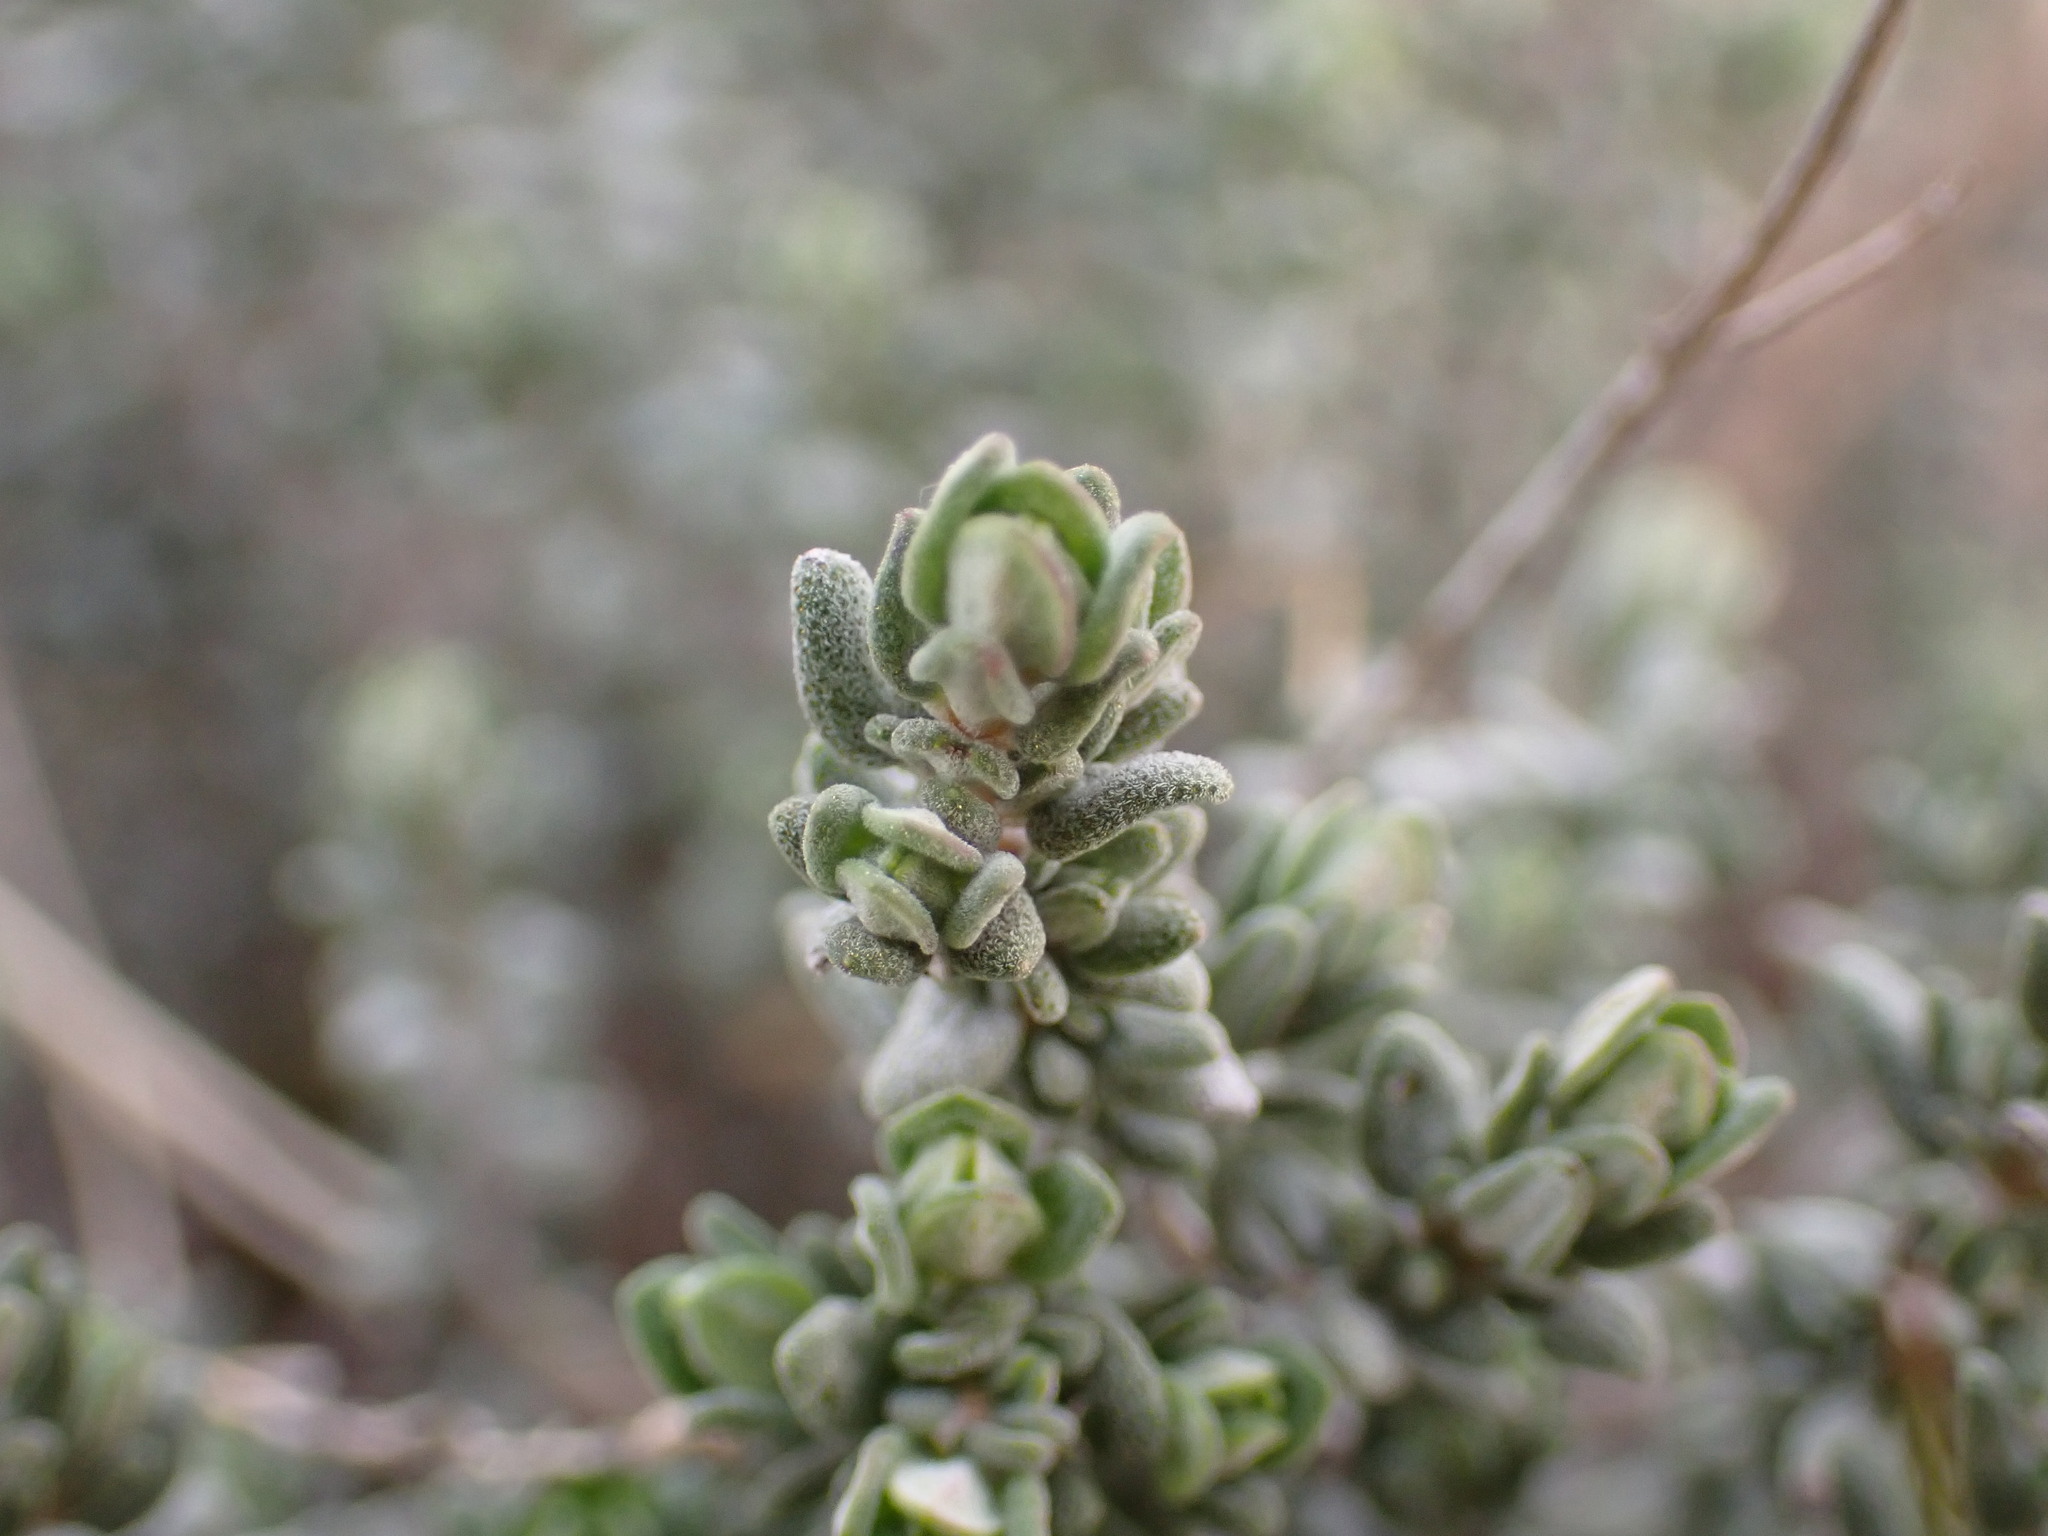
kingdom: Plantae
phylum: Tracheophyta
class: Magnoliopsida
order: Lamiales
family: Lamiaceae
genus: Thymus
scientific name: Thymus vulgaris
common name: Garden thyme
